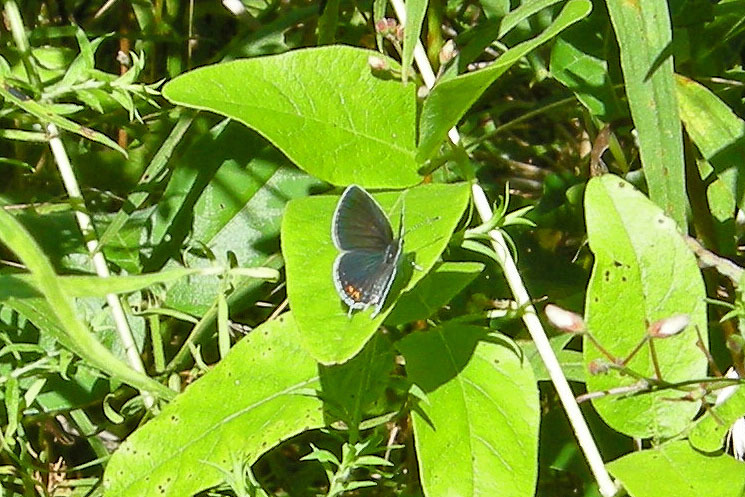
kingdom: Animalia
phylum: Arthropoda
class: Insecta
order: Lepidoptera
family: Lycaenidae
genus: Elkalyce
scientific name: Elkalyce comyntas
